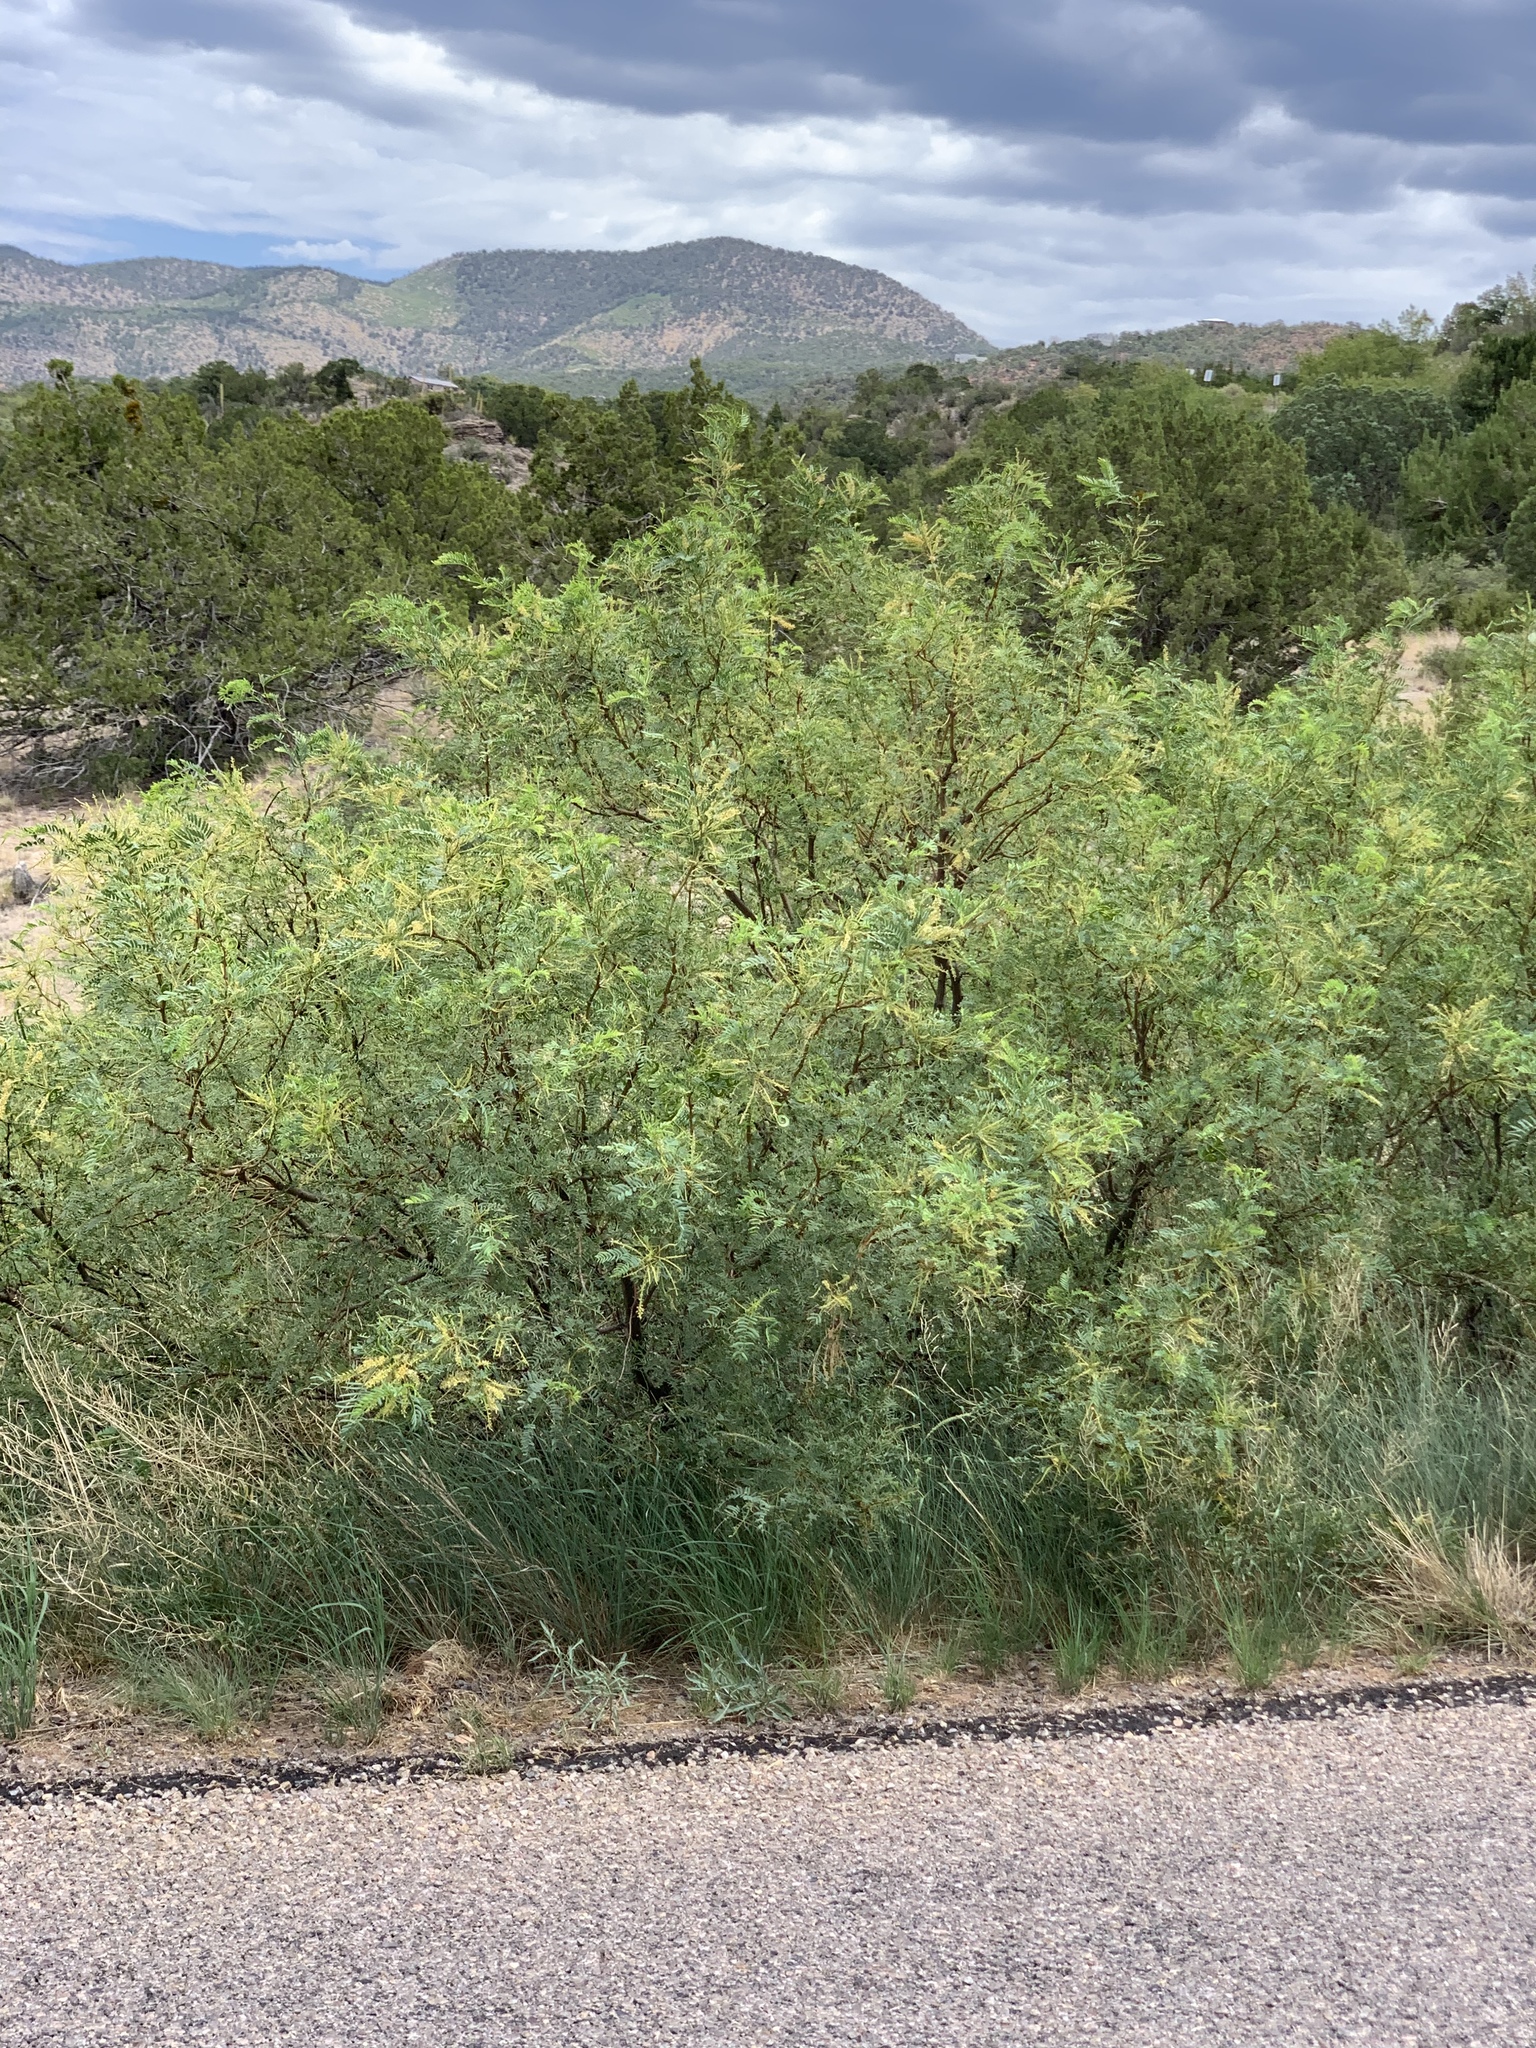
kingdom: Plantae
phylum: Tracheophyta
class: Magnoliopsida
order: Fabales
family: Fabaceae
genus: Prosopis
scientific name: Prosopis glandulosa
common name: Honey mesquite
